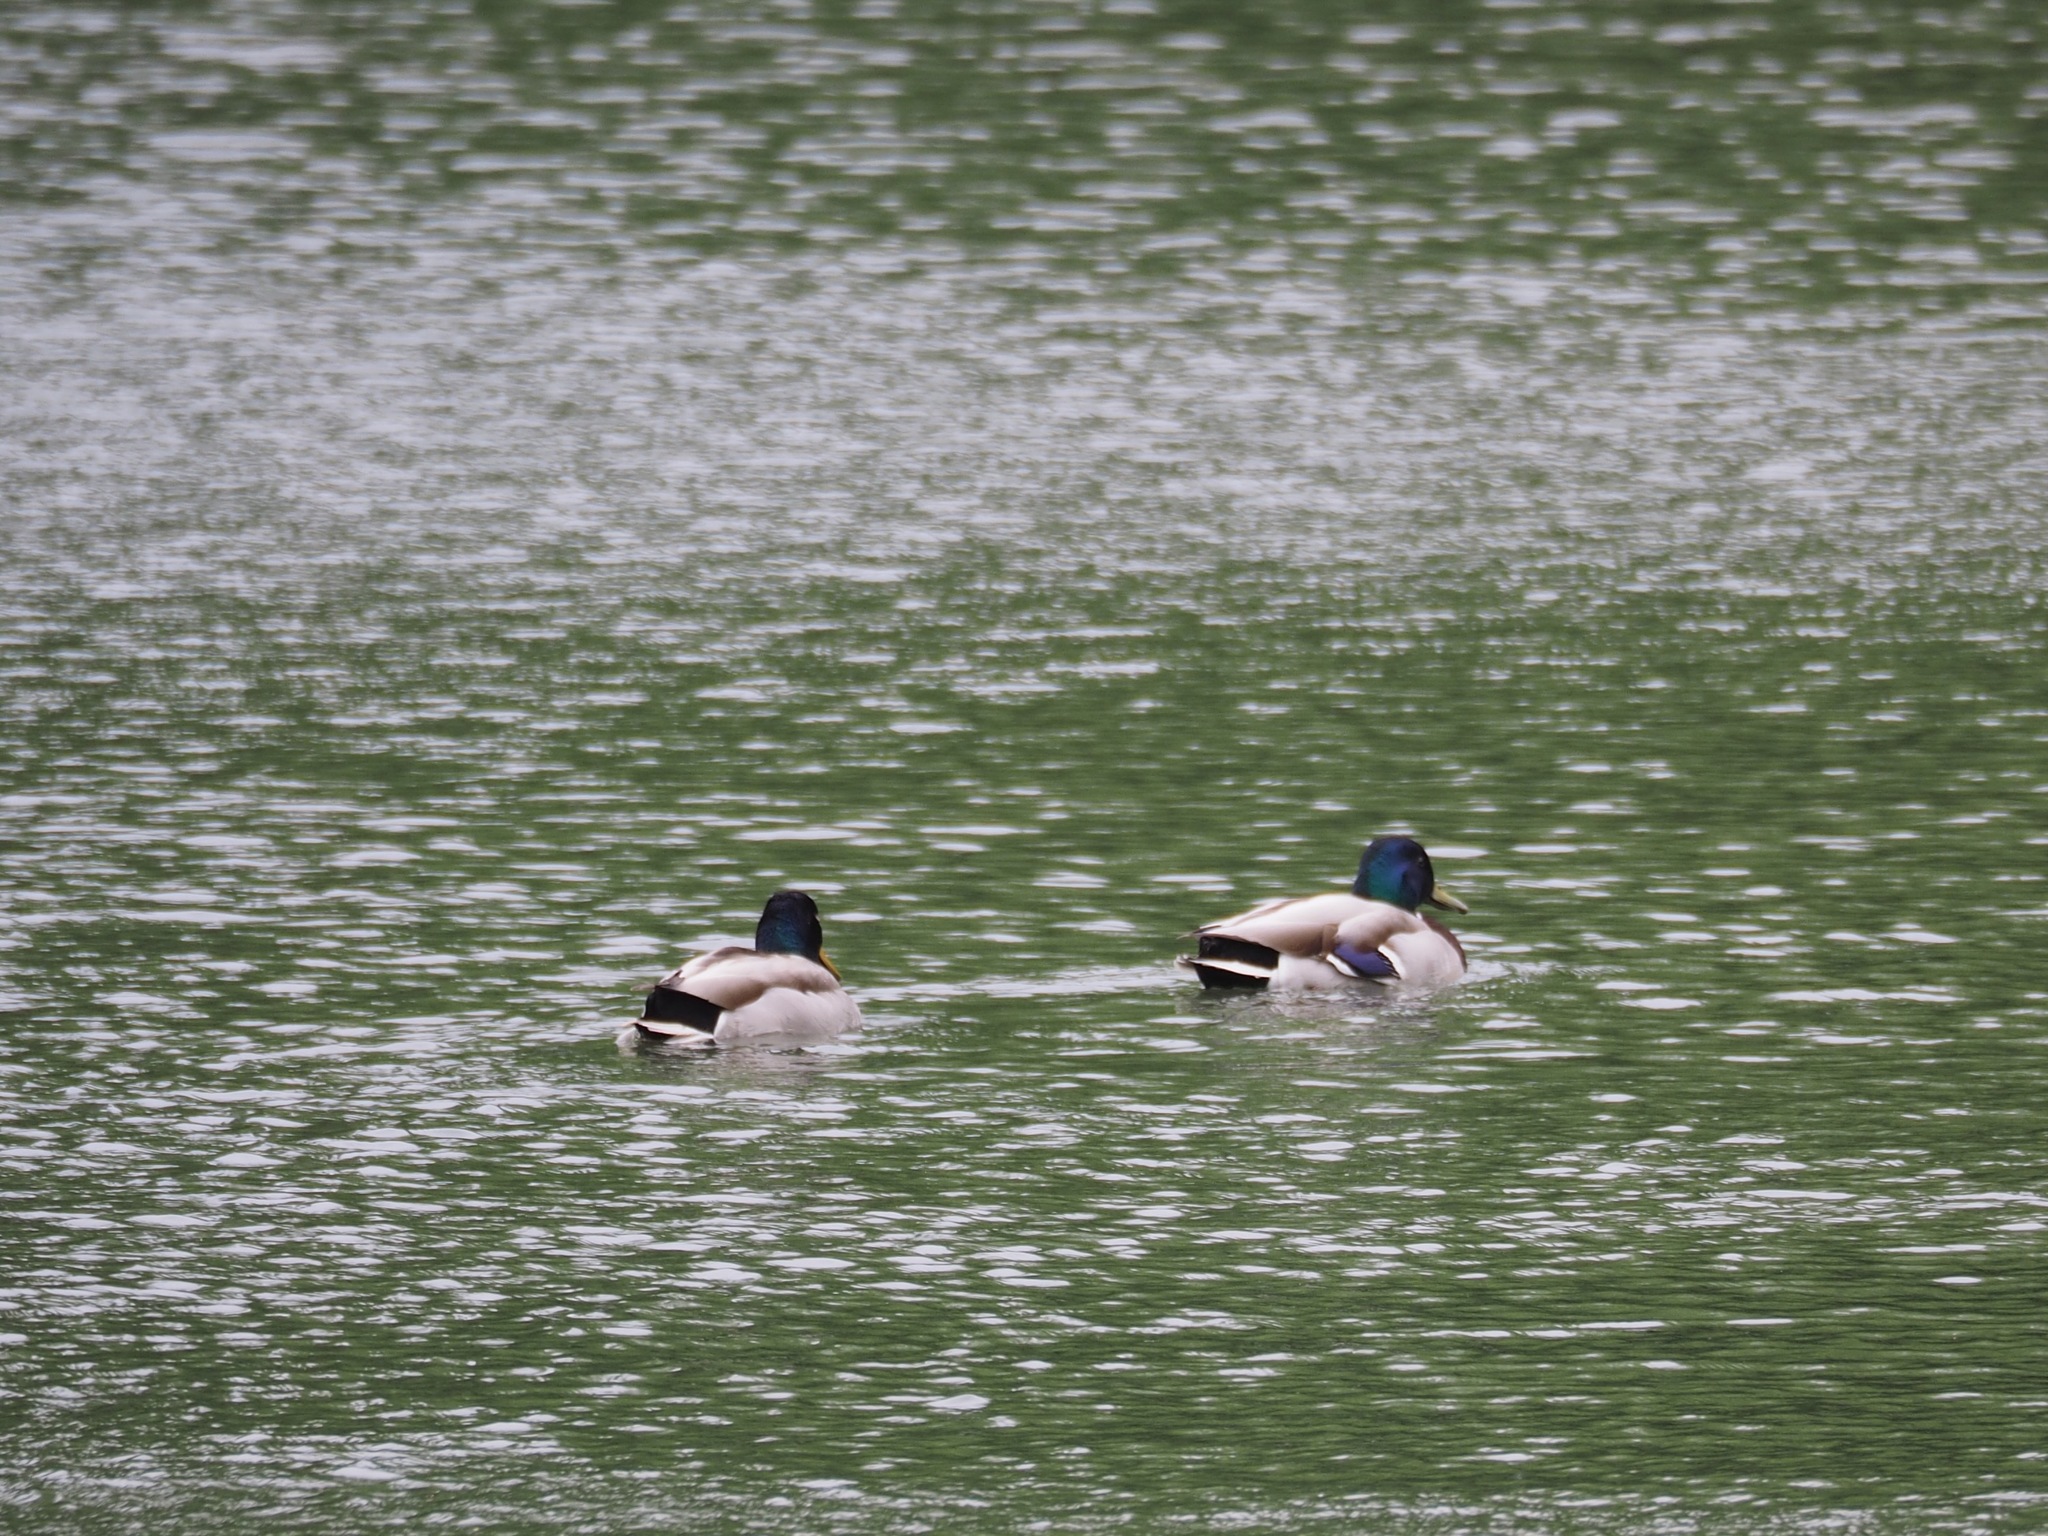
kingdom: Animalia
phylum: Chordata
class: Aves
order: Anseriformes
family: Anatidae
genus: Anas
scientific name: Anas platyrhynchos
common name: Mallard
